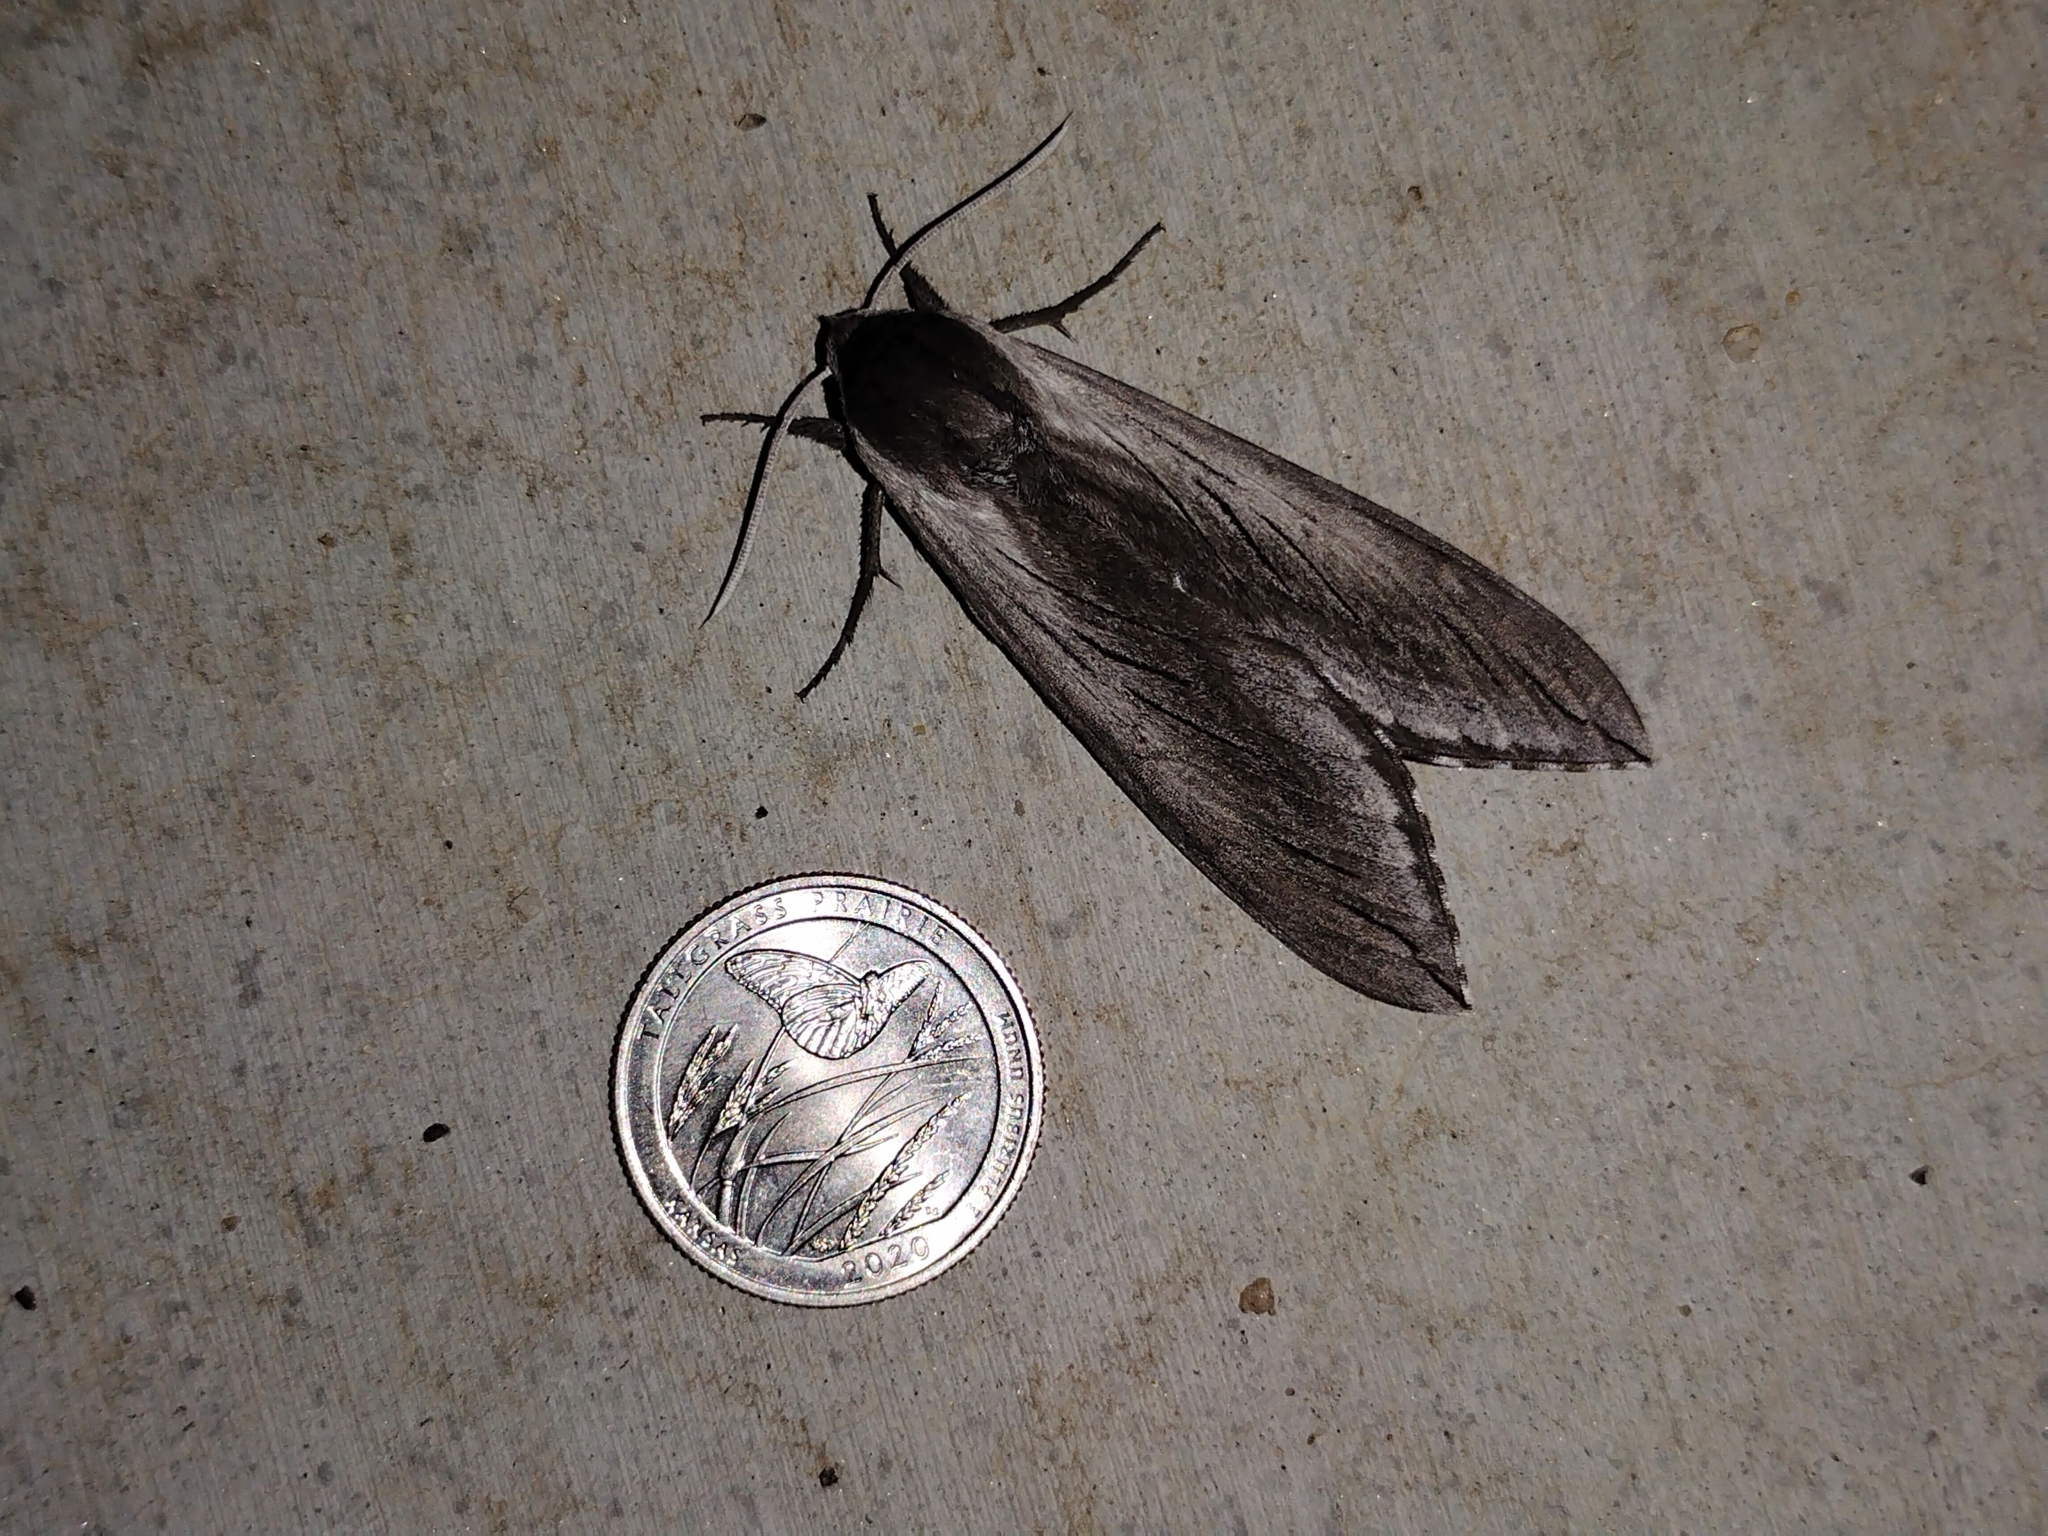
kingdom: Animalia
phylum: Arthropoda
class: Insecta
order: Lepidoptera
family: Sphingidae
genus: Sphinx
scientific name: Sphinx perelegans
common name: Elegant sphinx
